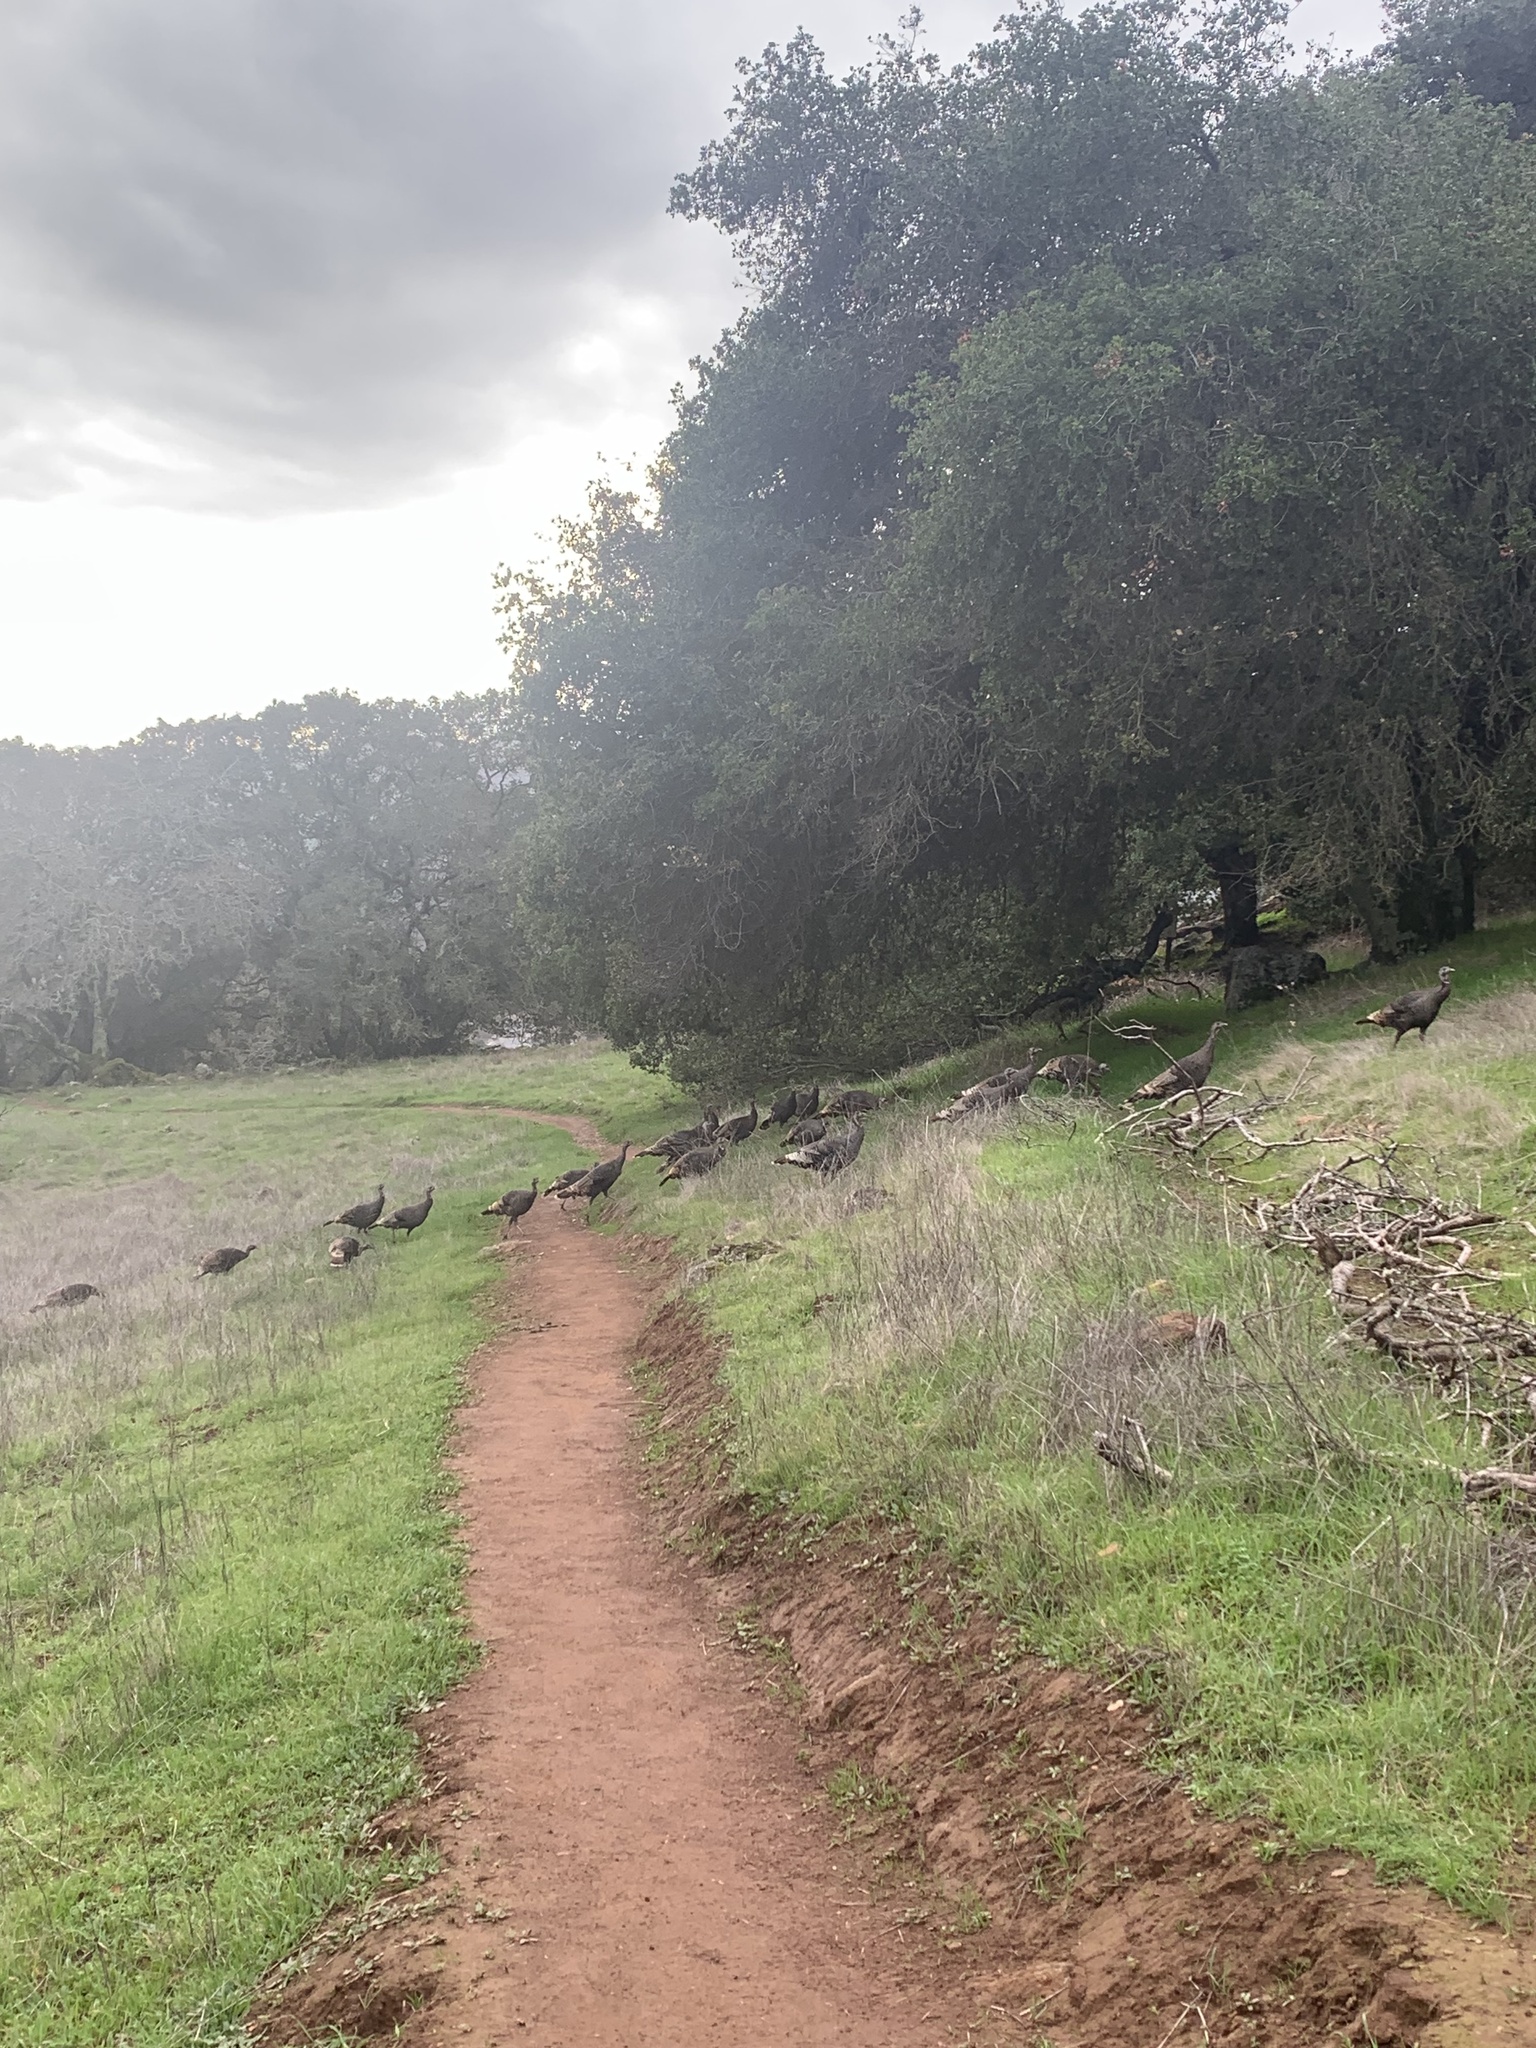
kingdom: Animalia
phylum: Chordata
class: Aves
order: Galliformes
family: Phasianidae
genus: Meleagris
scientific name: Meleagris gallopavo
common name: Wild turkey
